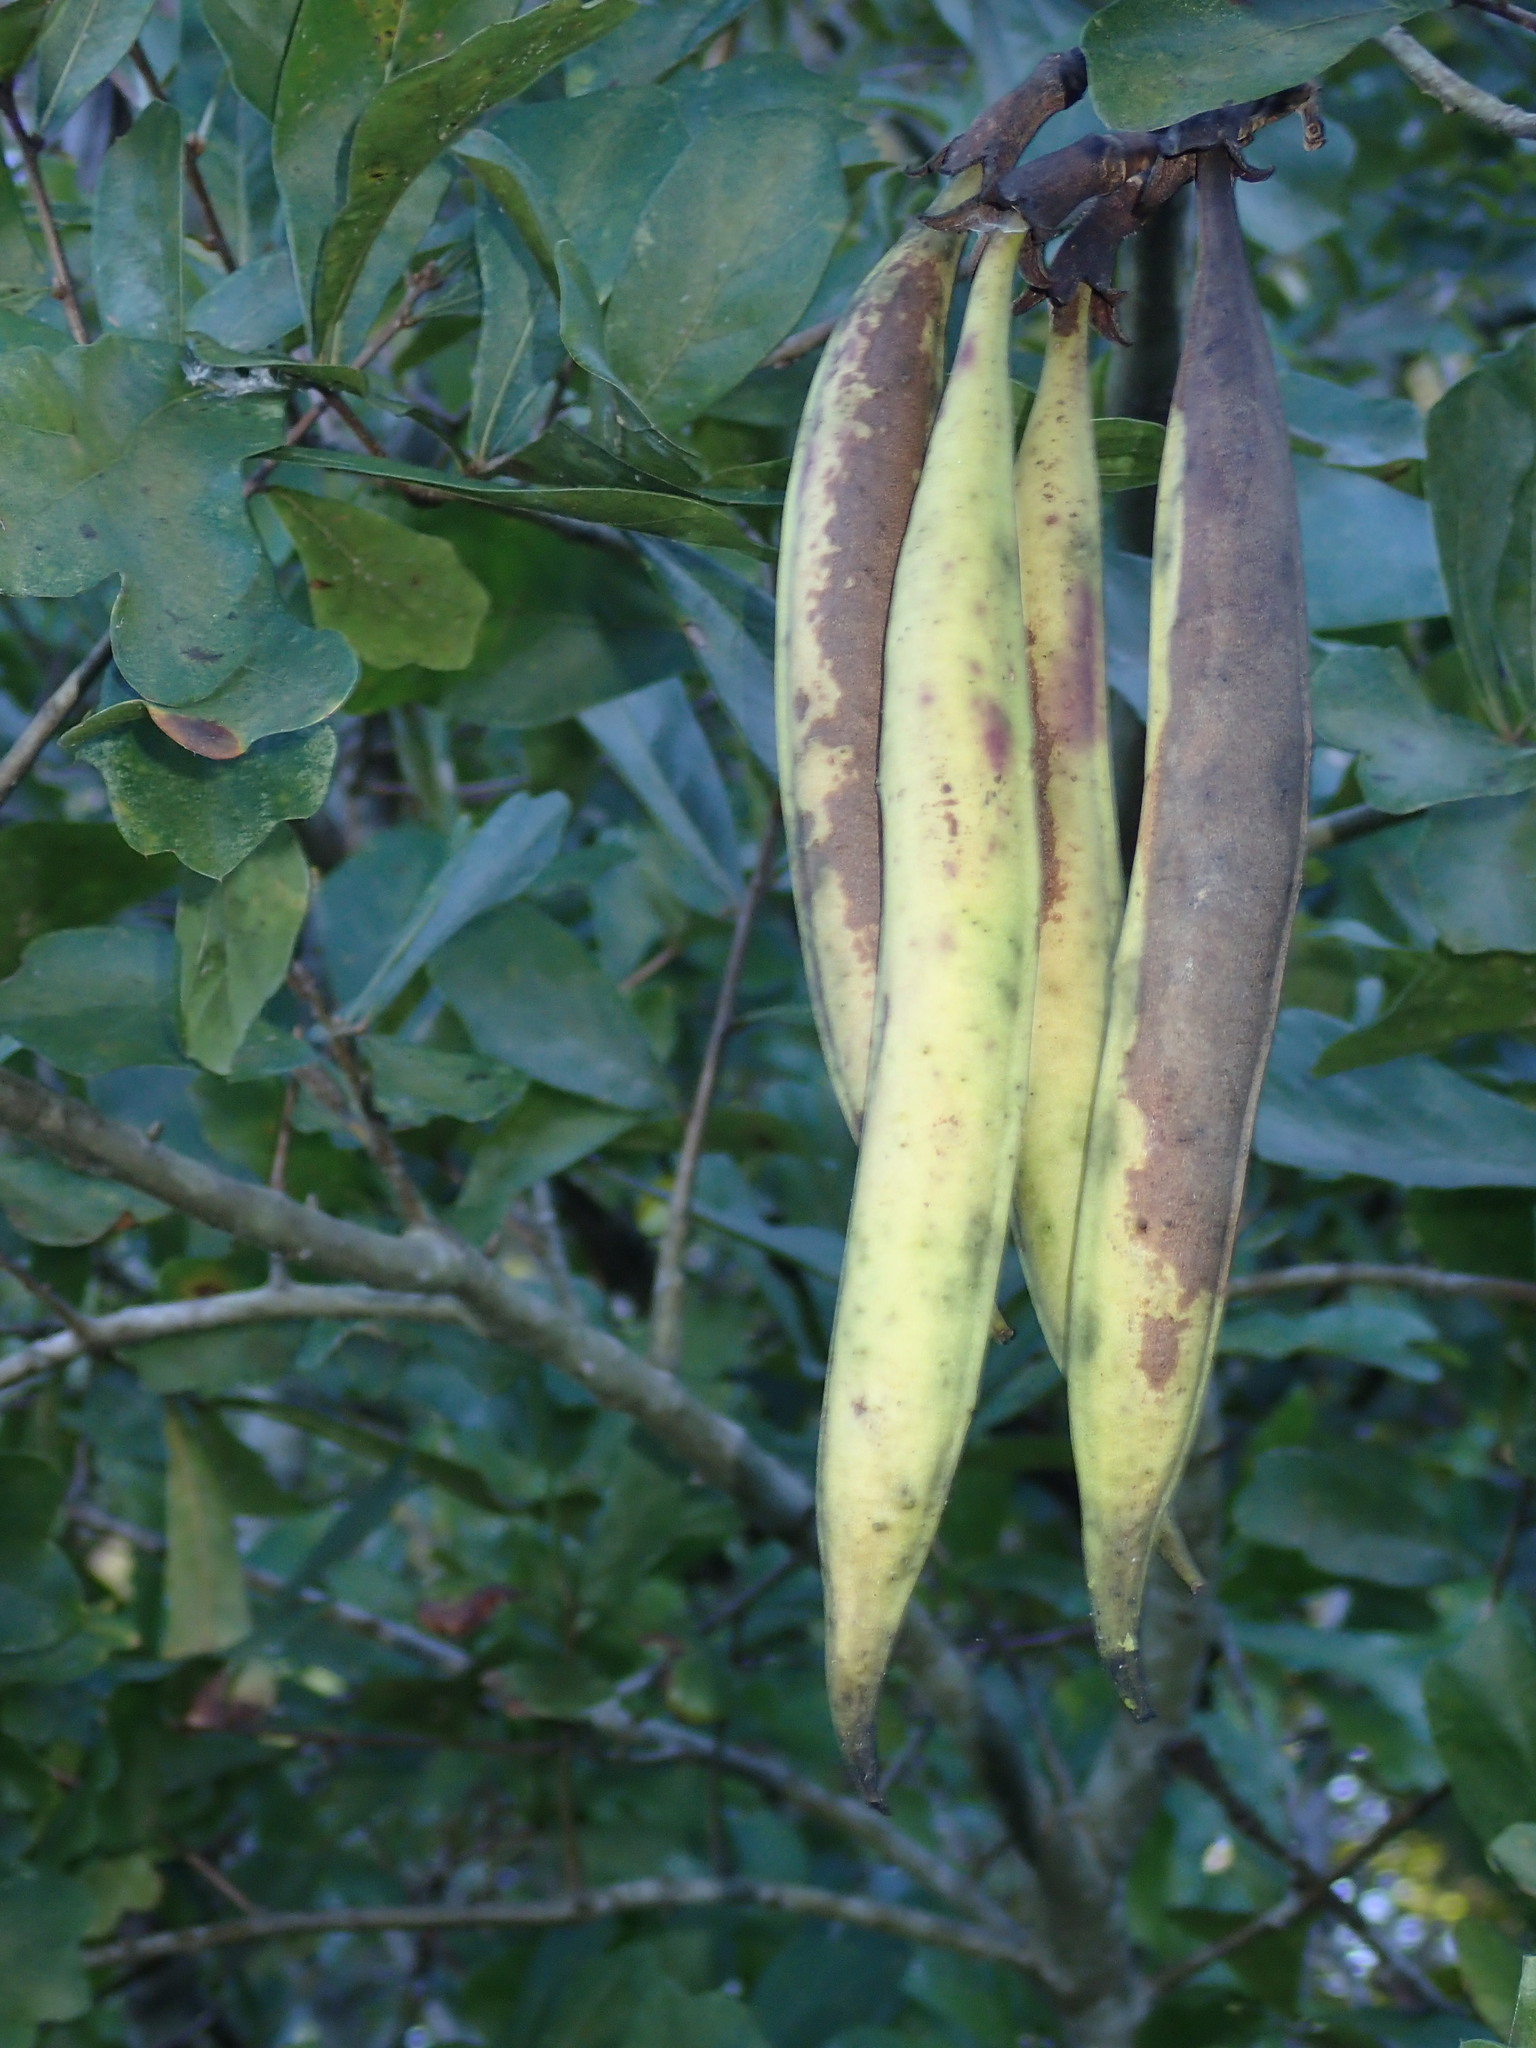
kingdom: Plantae
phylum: Tracheophyta
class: Magnoliopsida
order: Lamiales
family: Bignoniaceae
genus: Campsis
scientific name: Campsis radicans
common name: Trumpet-creeper
